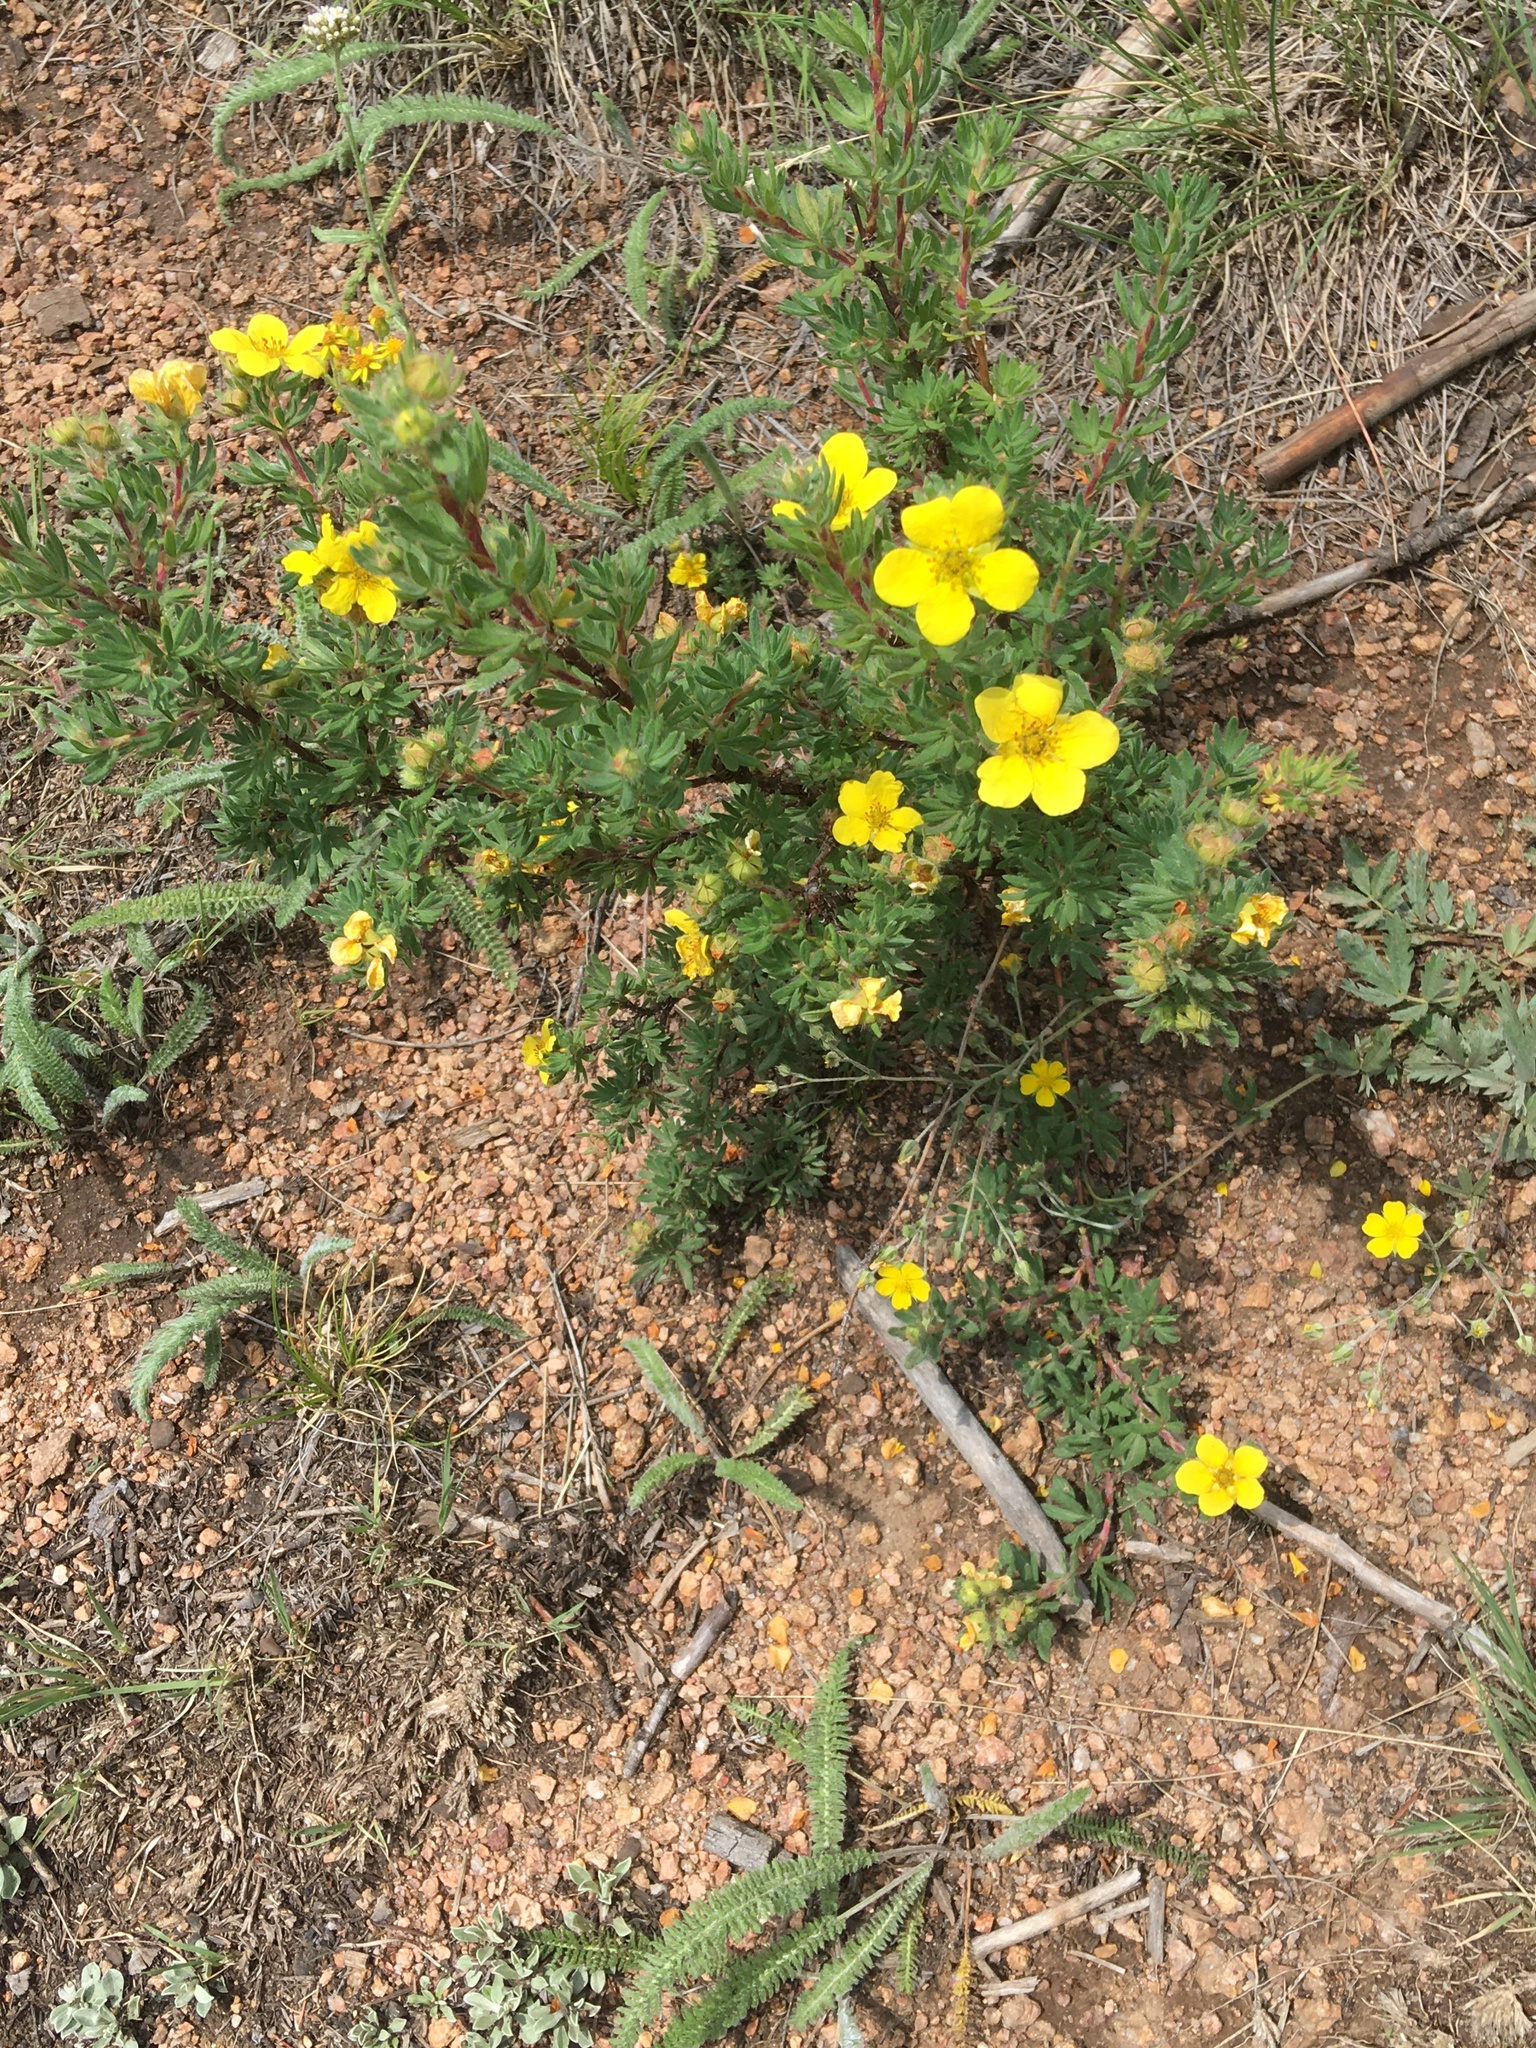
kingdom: Plantae
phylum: Tracheophyta
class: Magnoliopsida
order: Rosales
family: Rosaceae
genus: Dasiphora
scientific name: Dasiphora fruticosa
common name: Shrubby cinquefoil
